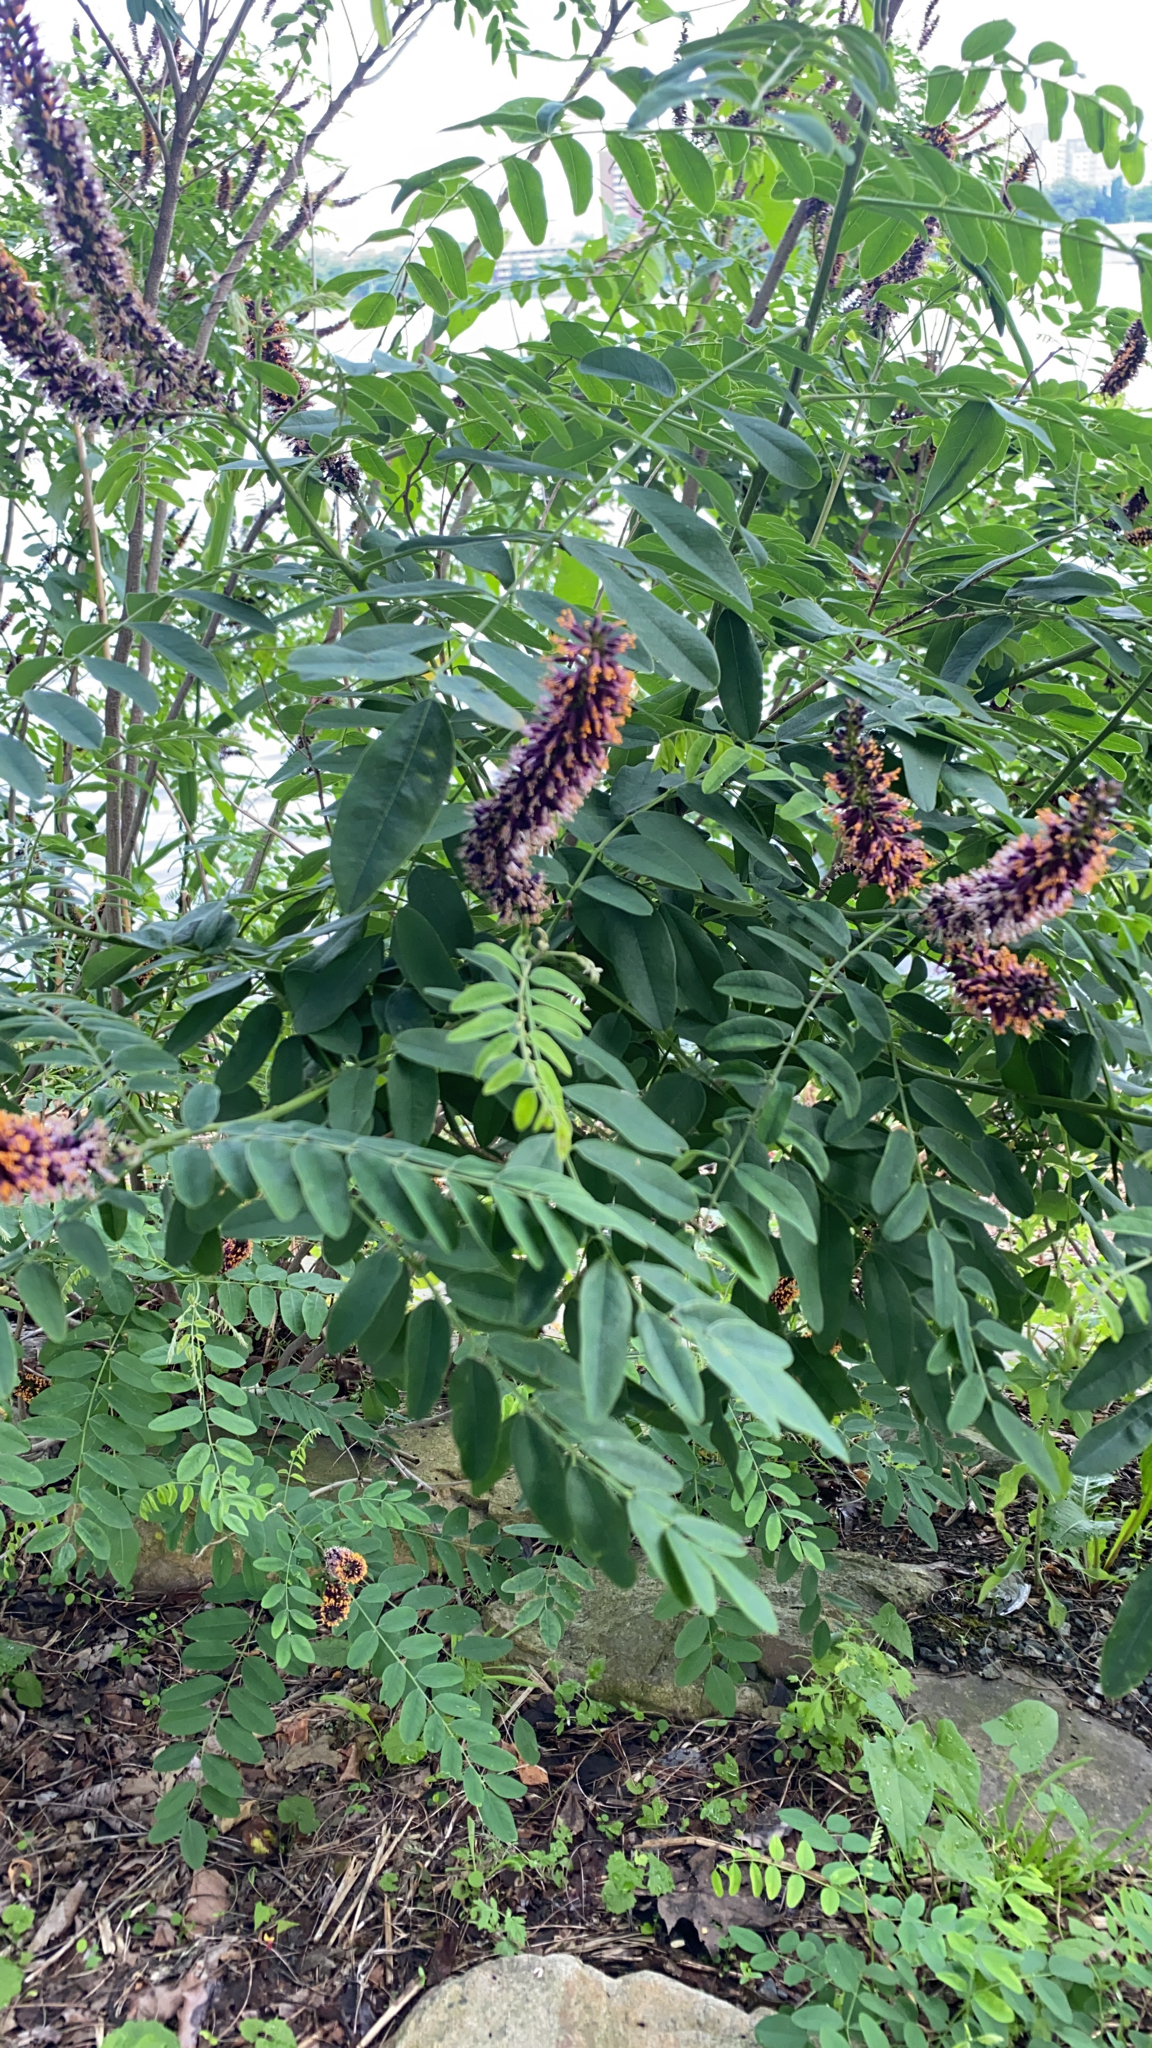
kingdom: Plantae
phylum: Tracheophyta
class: Magnoliopsida
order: Fabales
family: Fabaceae
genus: Amorpha
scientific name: Amorpha fruticosa
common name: False indigo
